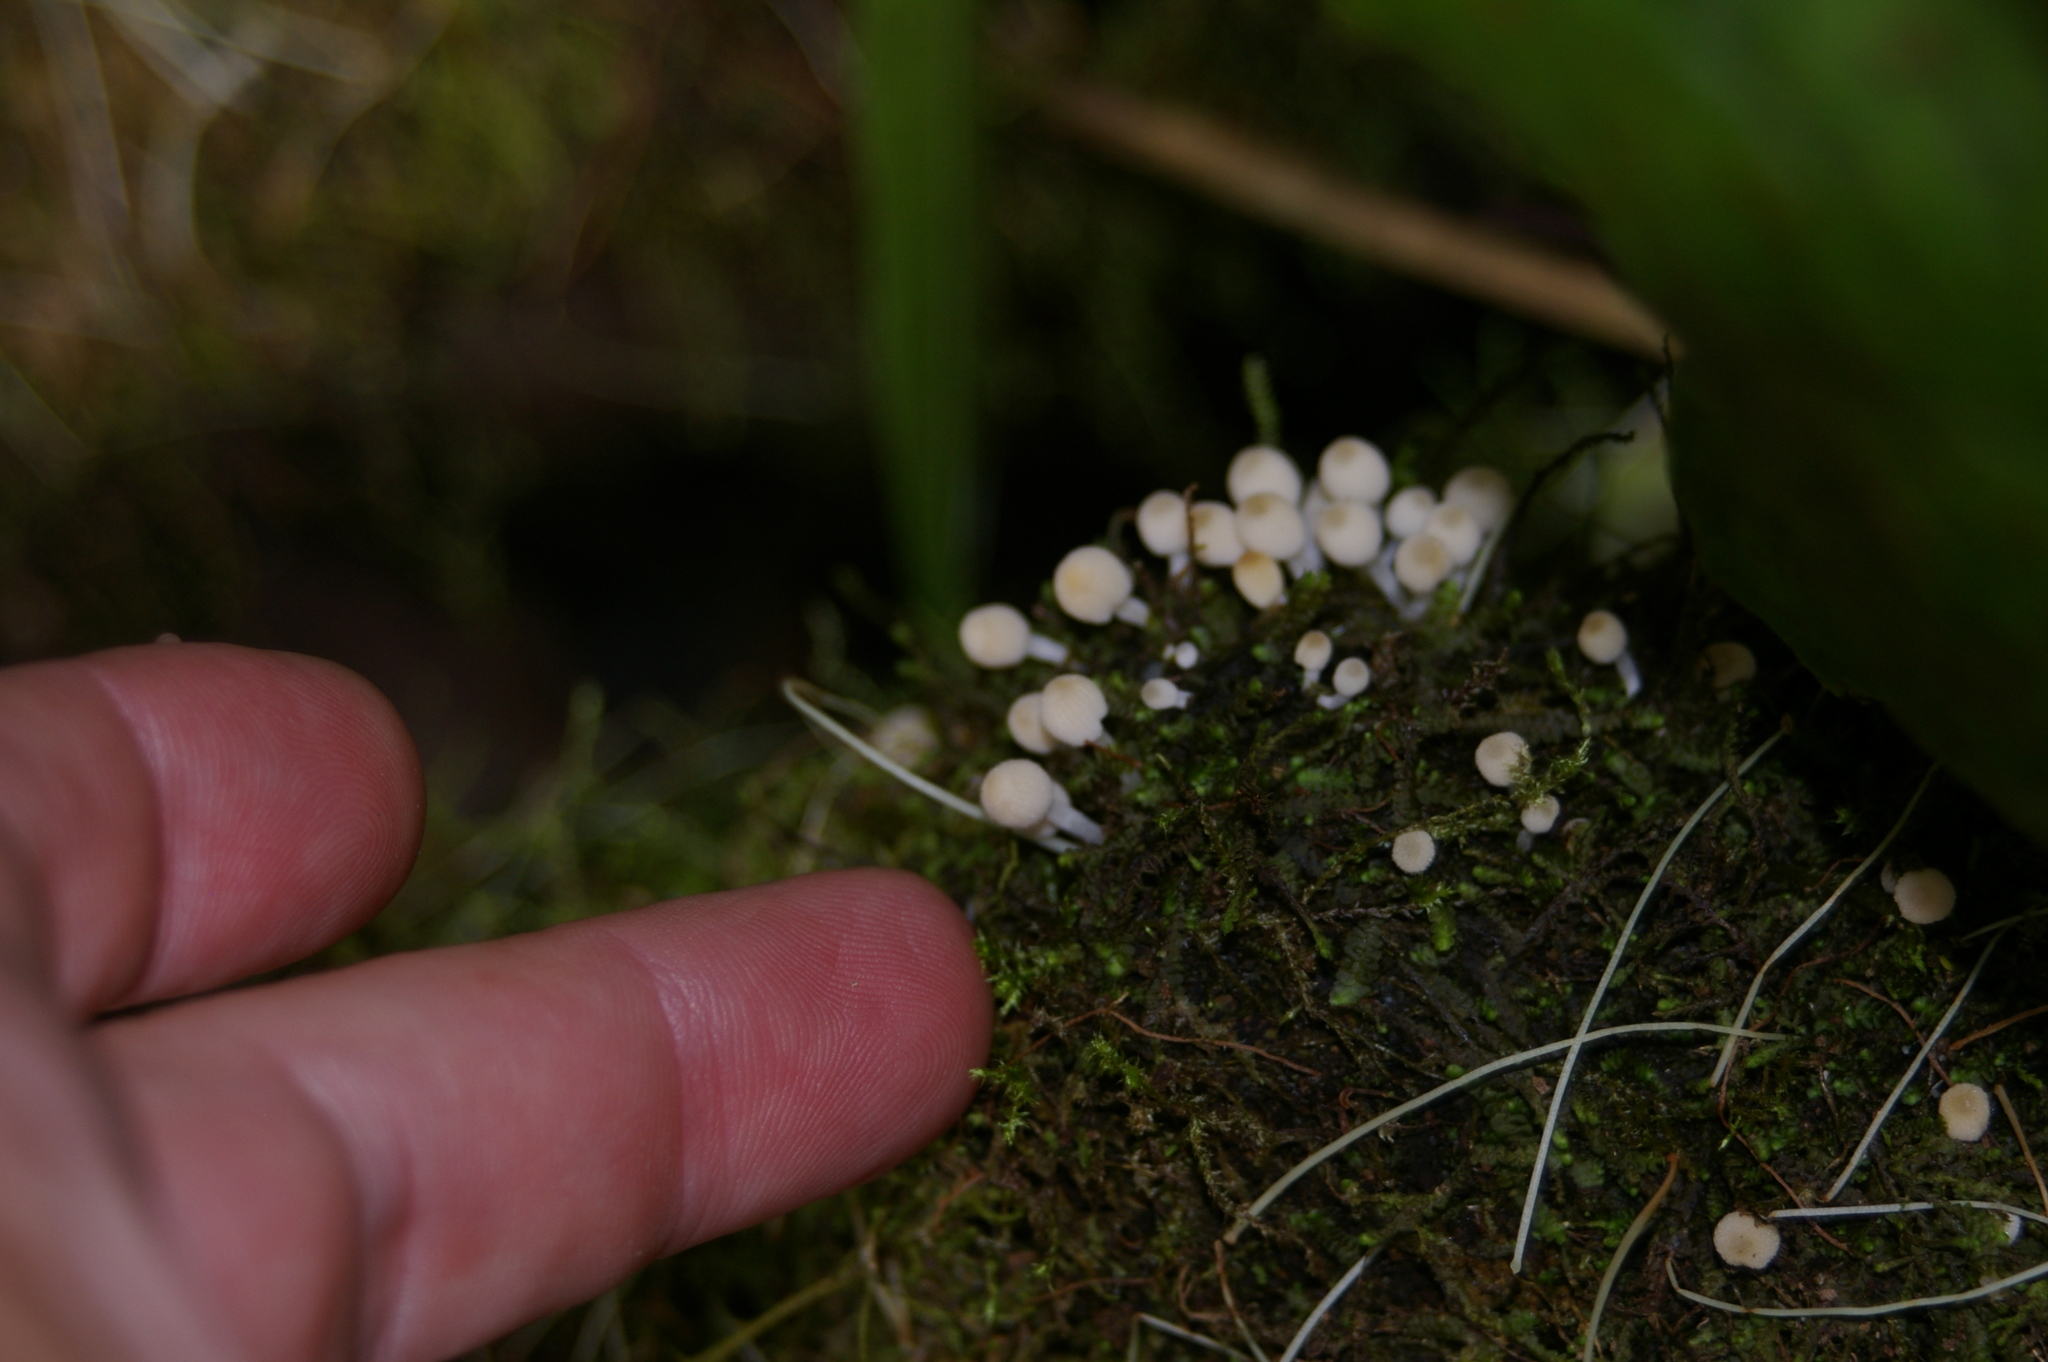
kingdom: Fungi
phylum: Basidiomycota
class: Agaricomycetes
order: Agaricales
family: Psathyrellaceae
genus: Coprinellus
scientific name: Coprinellus disseminatus
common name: Fairies' bonnets
